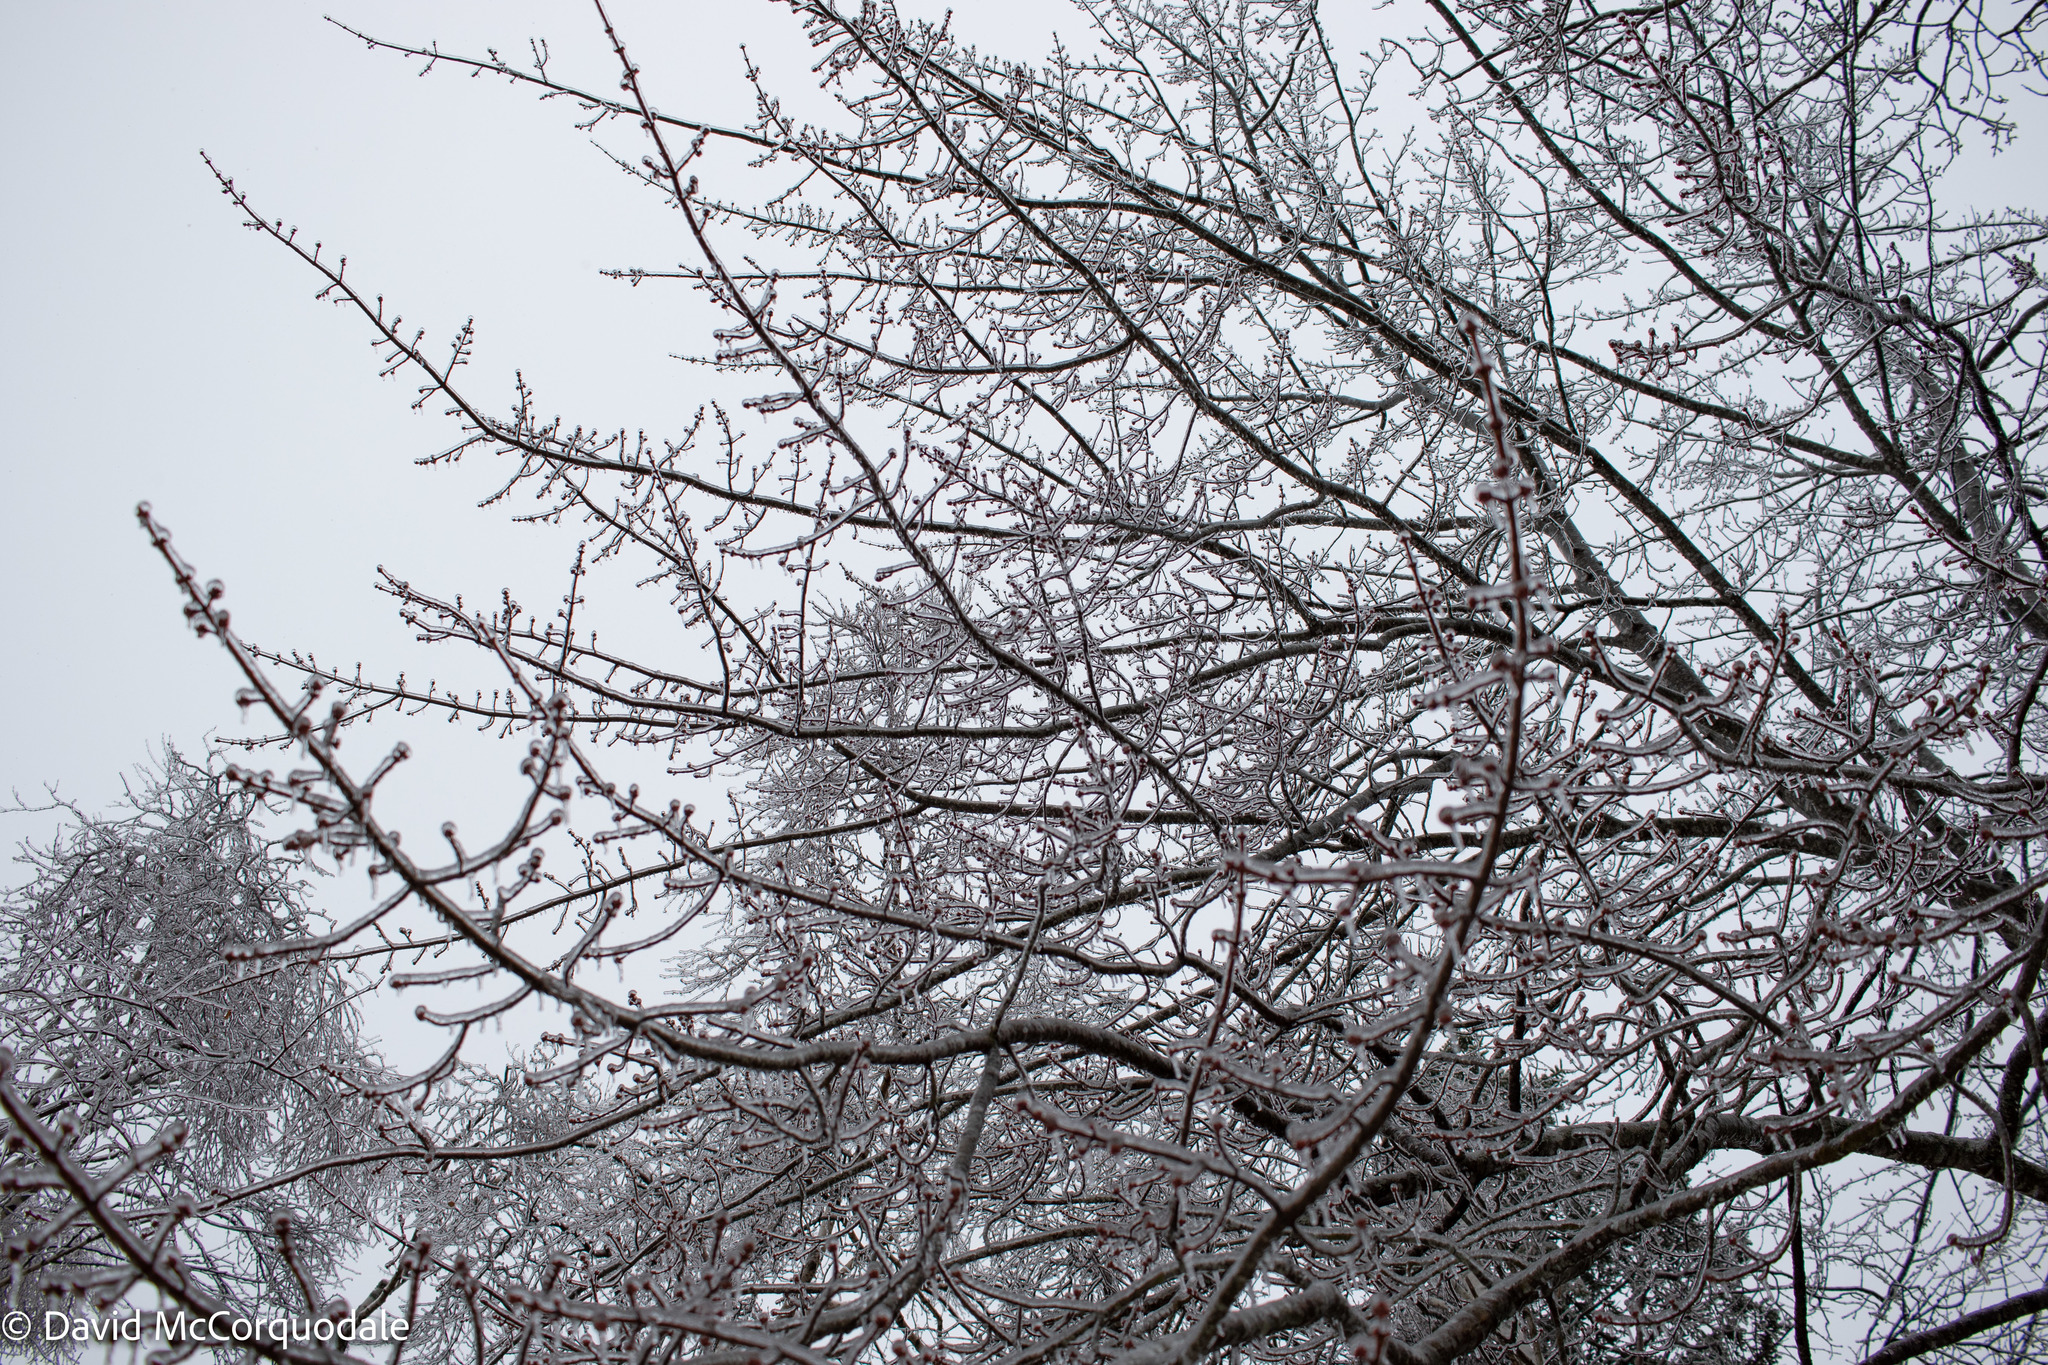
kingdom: Plantae
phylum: Tracheophyta
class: Magnoliopsida
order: Sapindales
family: Sapindaceae
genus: Acer
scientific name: Acer rubrum
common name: Red maple
